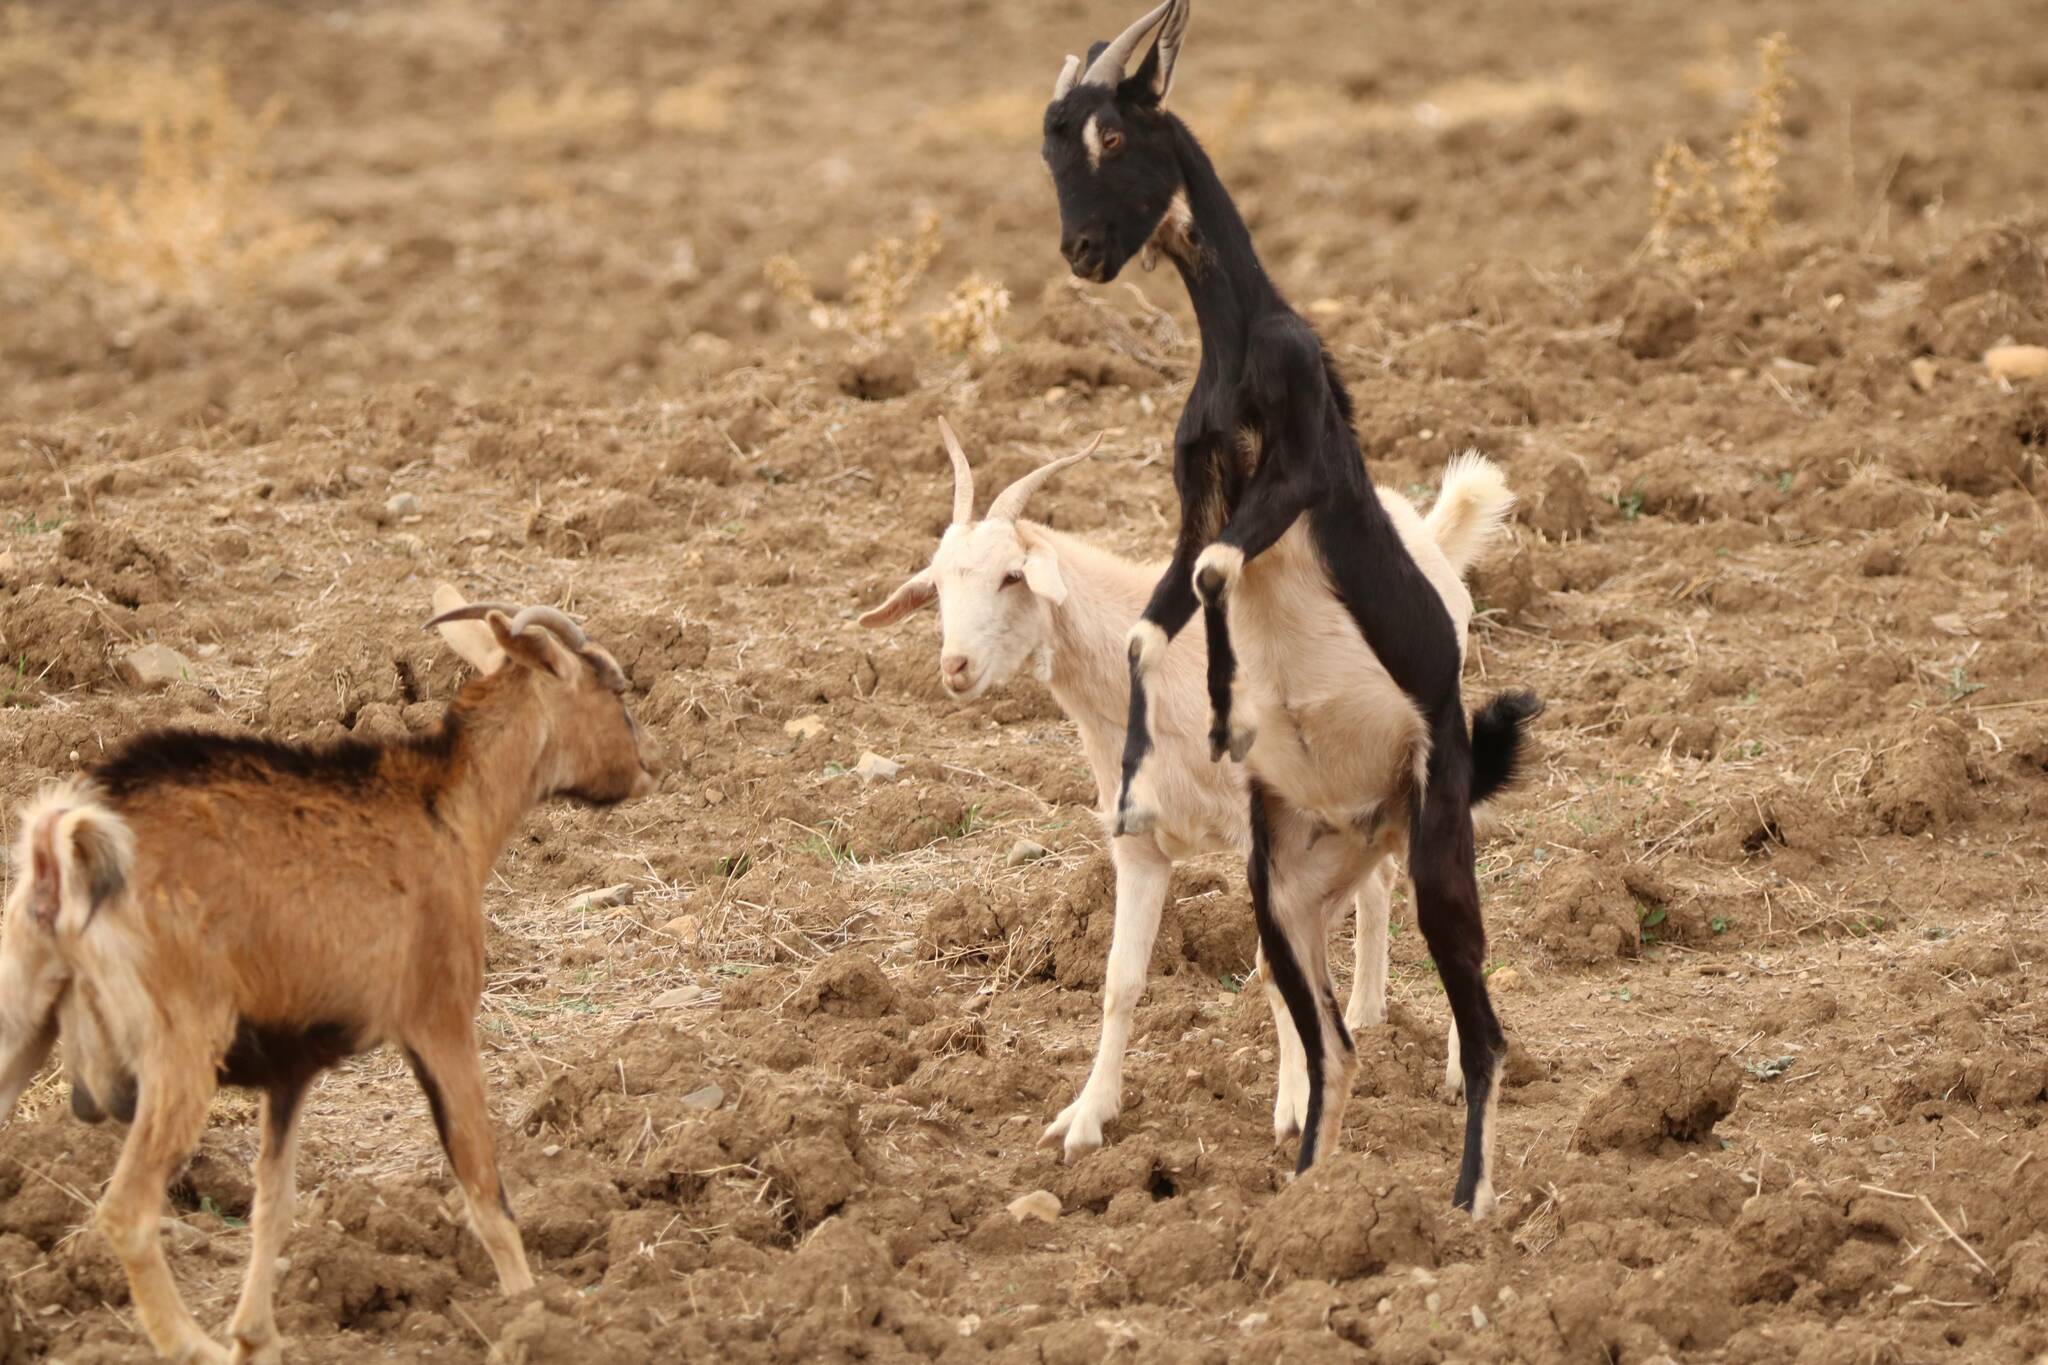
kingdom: Animalia
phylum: Chordata
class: Mammalia
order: Artiodactyla
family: Bovidae
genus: Capra
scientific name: Capra hircus
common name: Domestic goat
